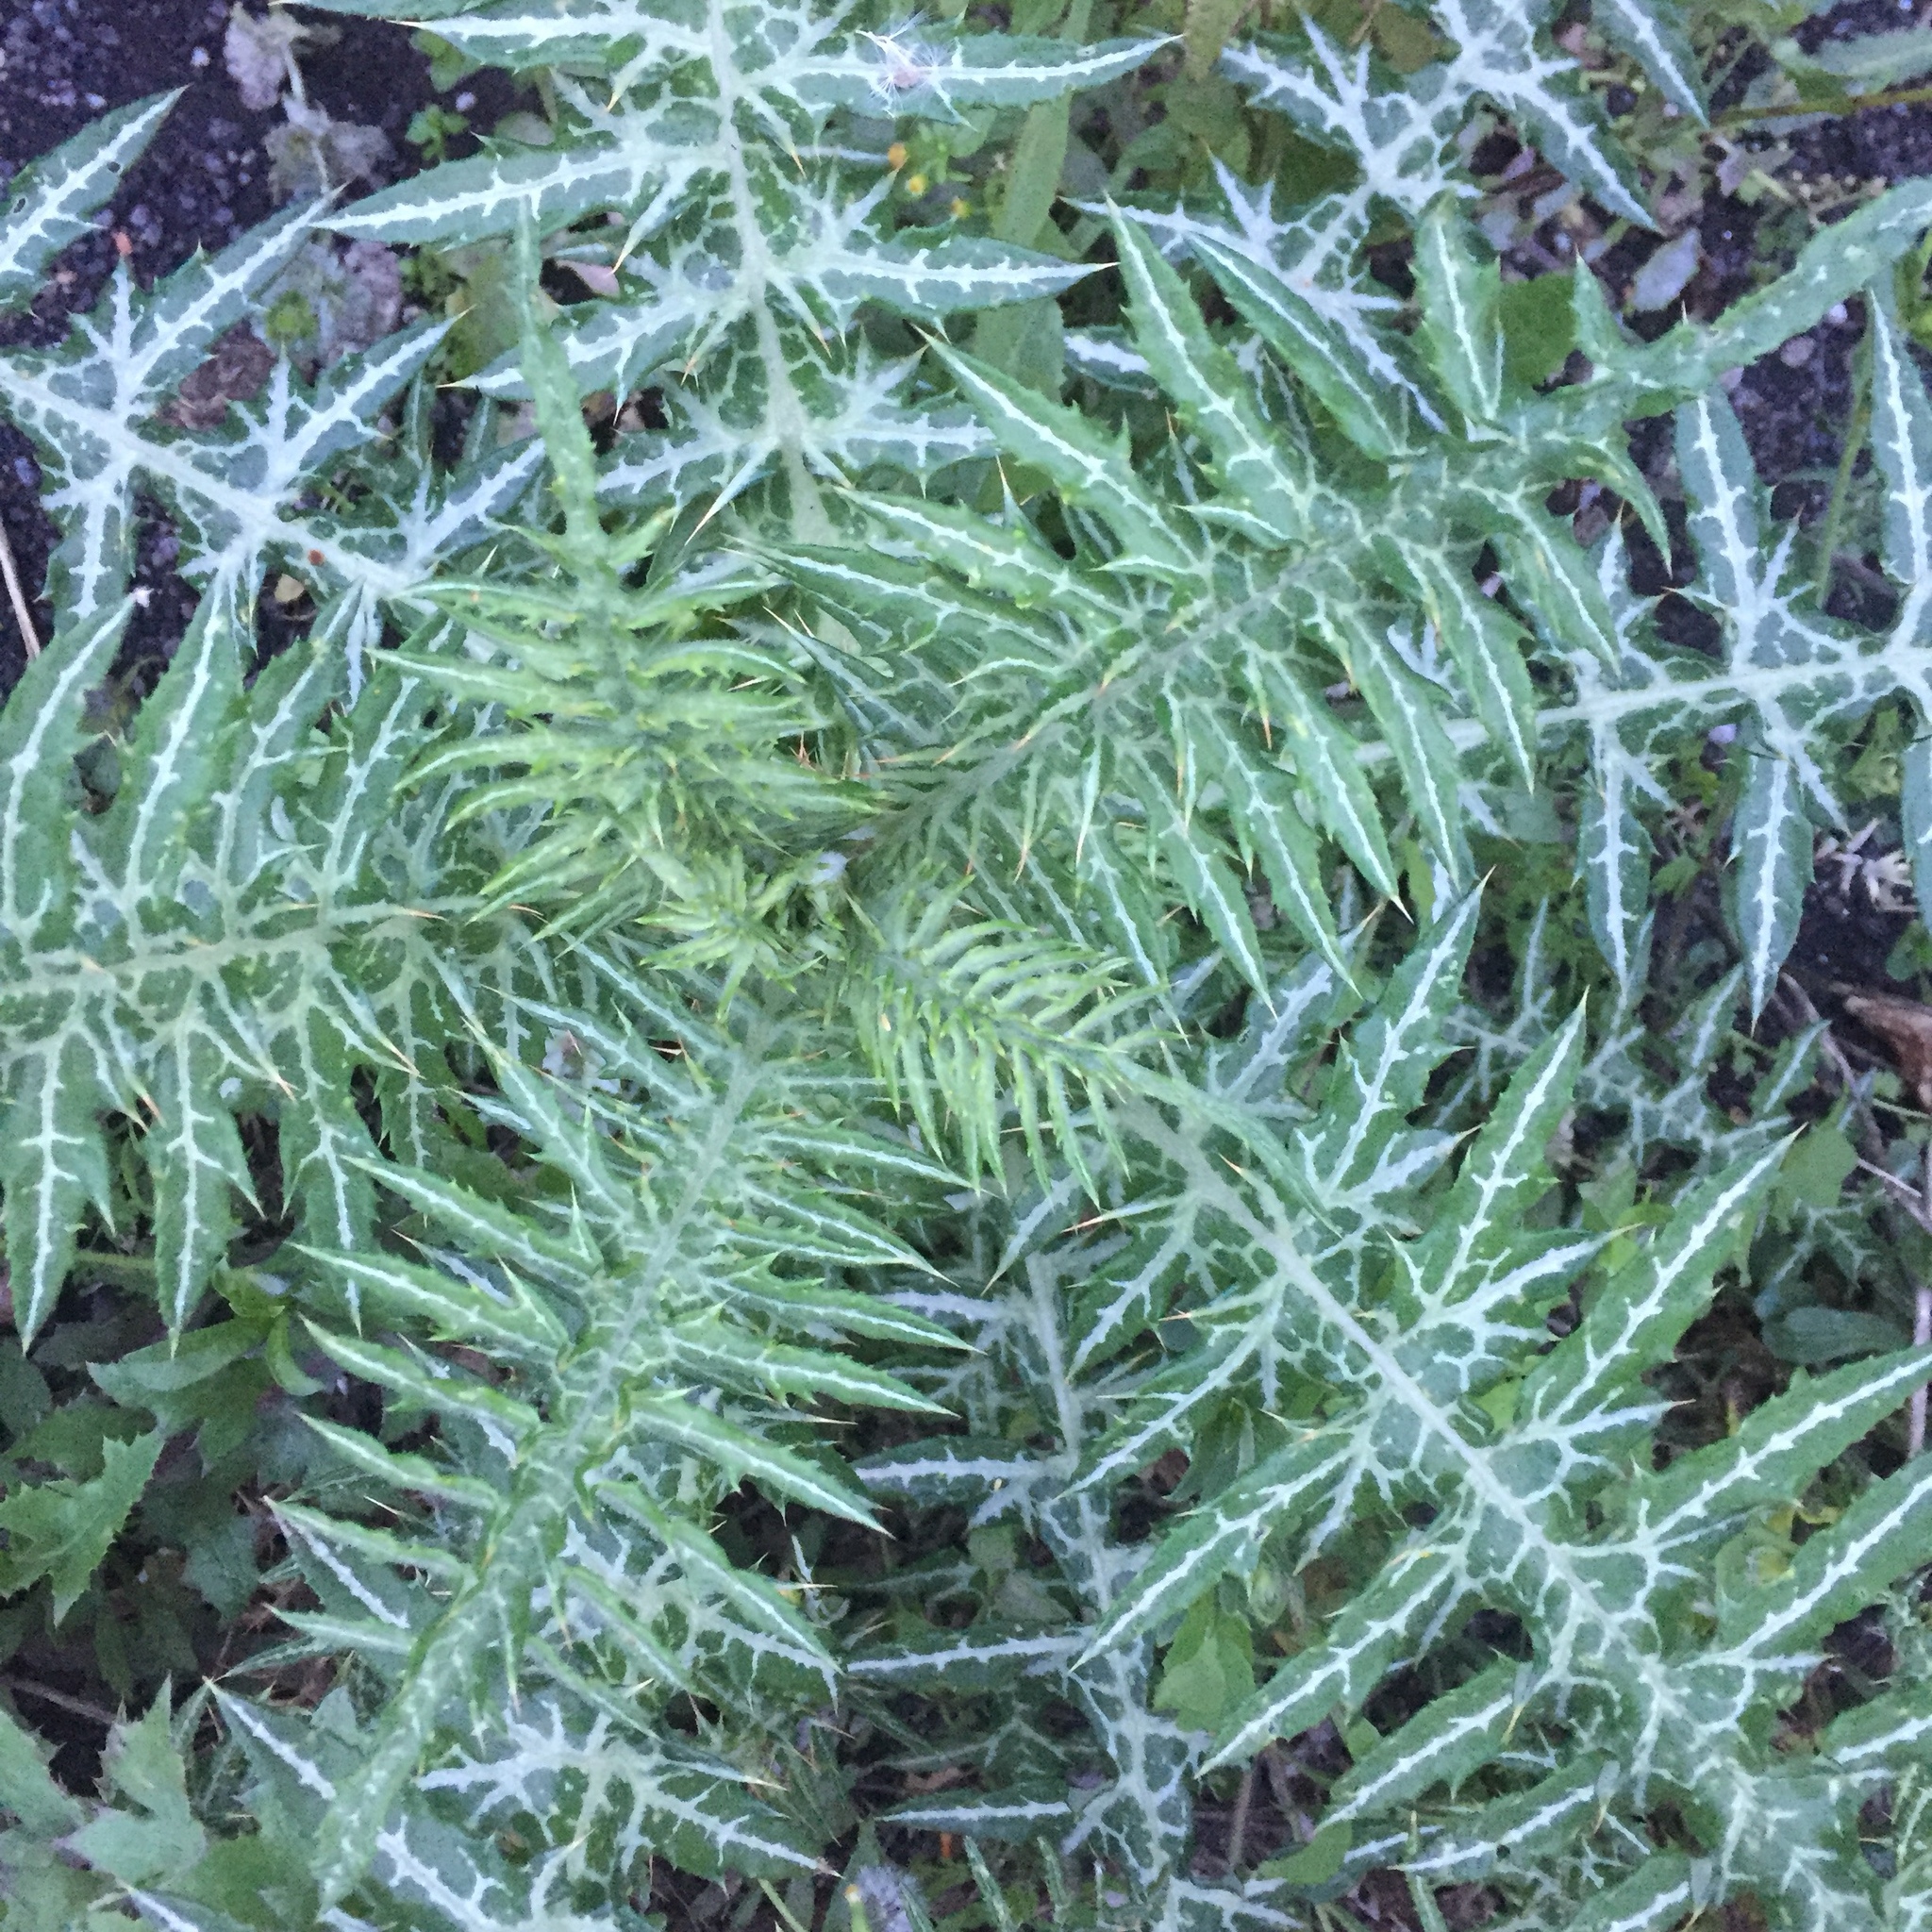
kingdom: Plantae
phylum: Tracheophyta
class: Magnoliopsida
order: Asterales
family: Asteraceae
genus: Galactites
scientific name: Galactites tomentosa
